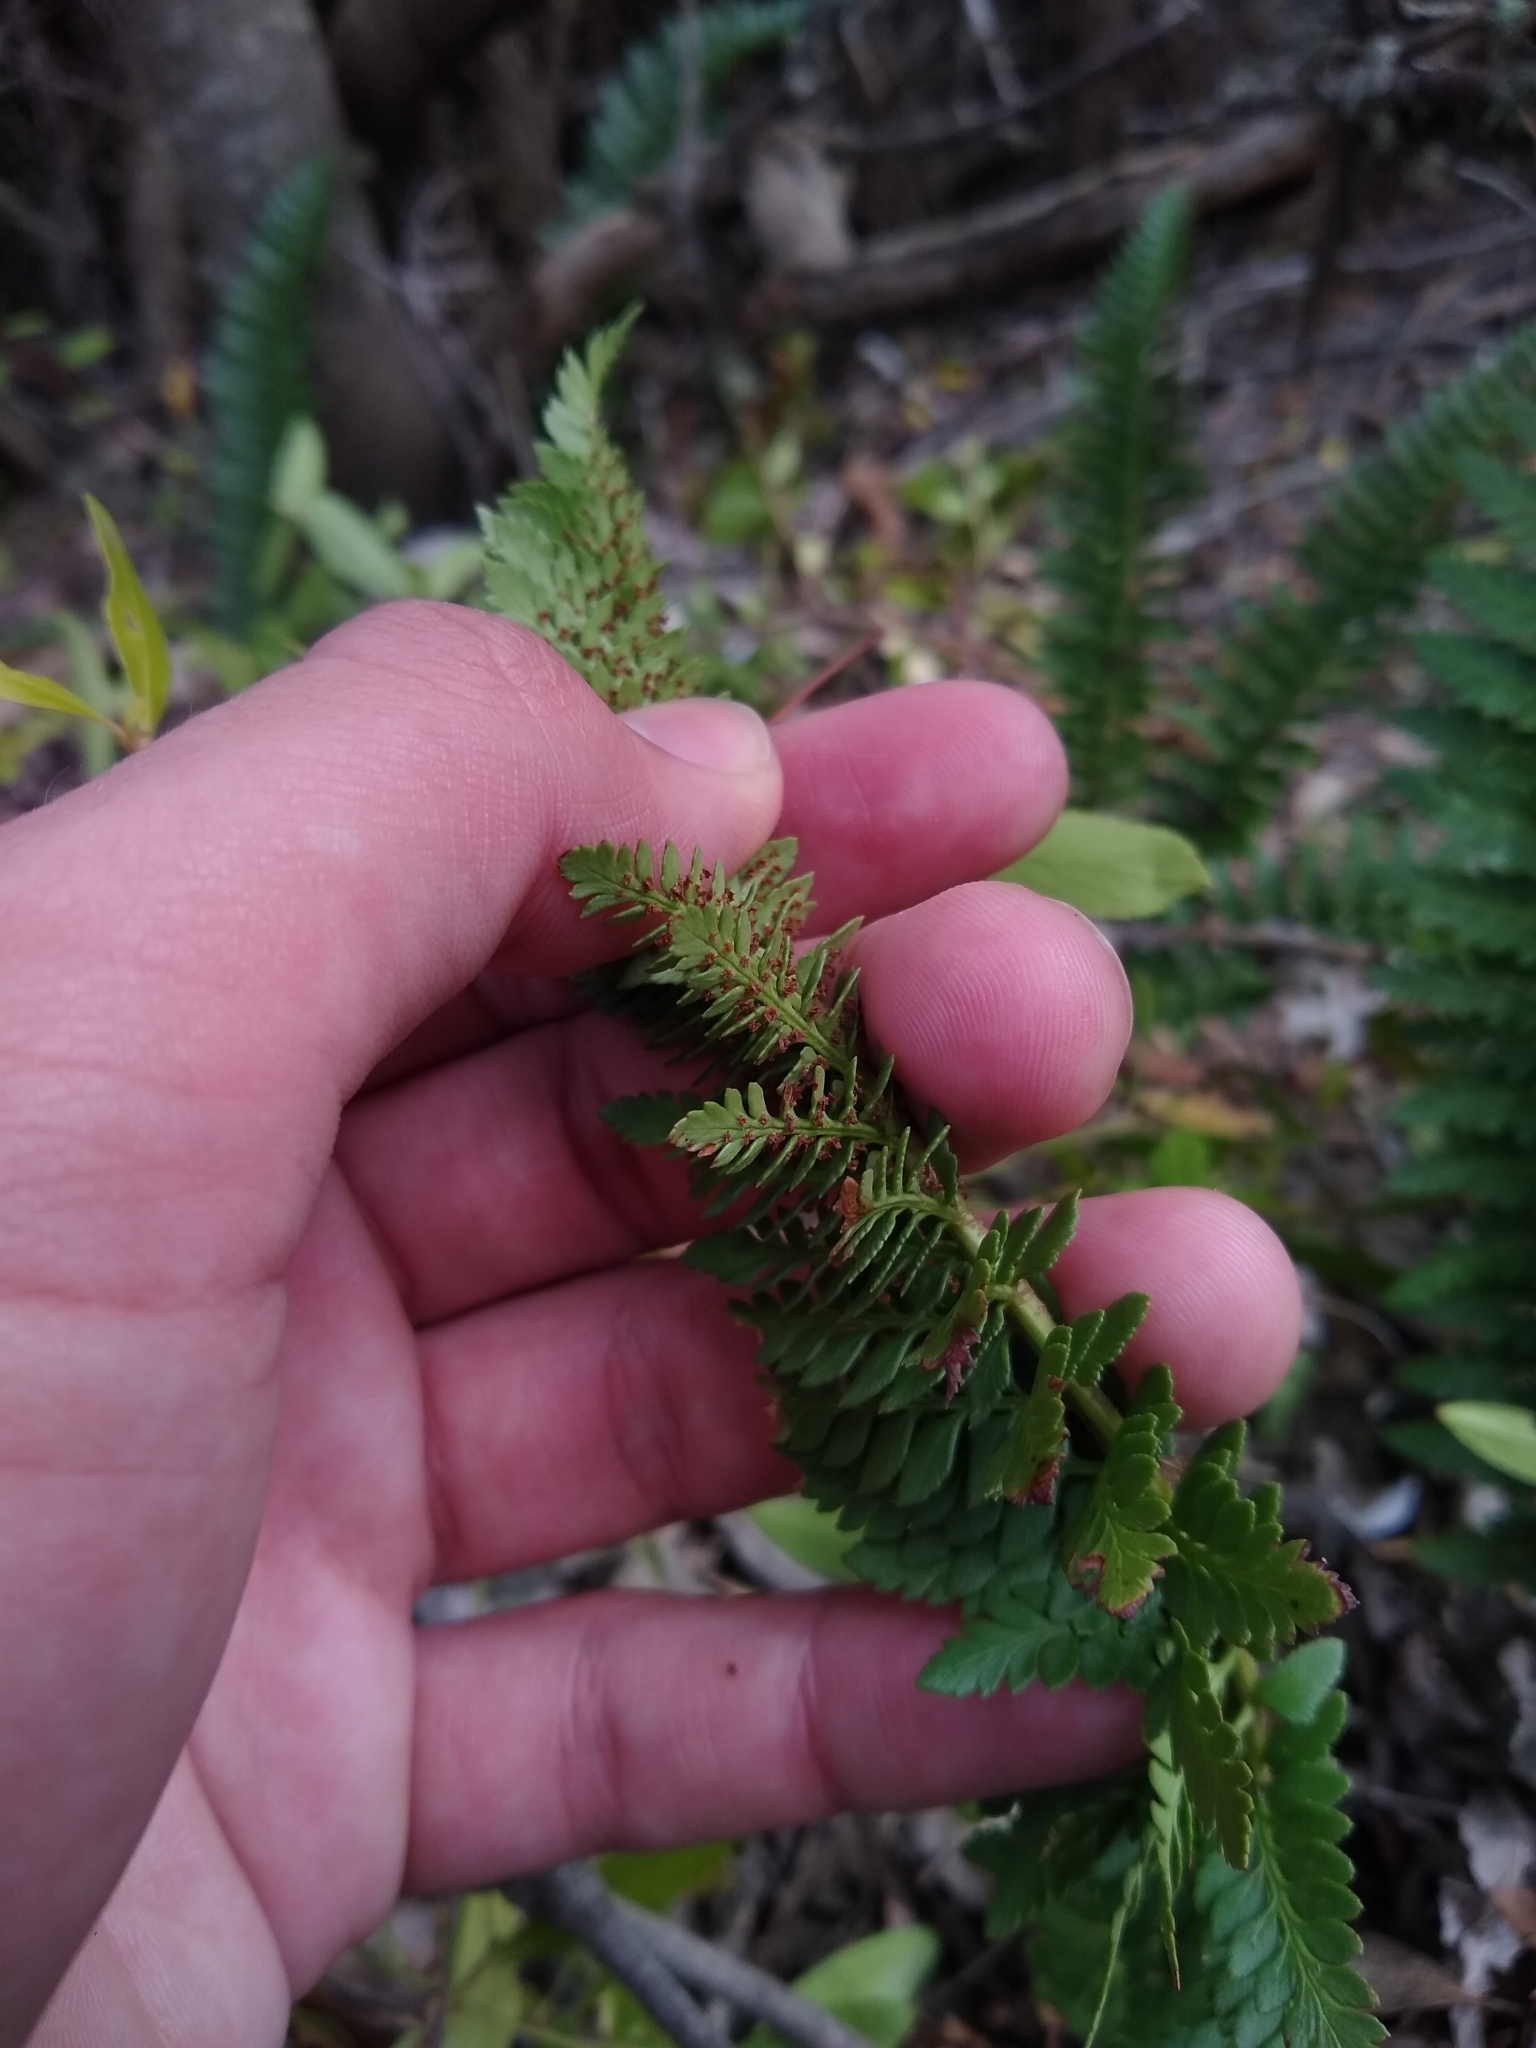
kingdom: Plantae
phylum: Tracheophyta
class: Polypodiopsida
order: Polypodiales
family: Dryopteridaceae
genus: Polystichum
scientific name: Polystichum plicatum
